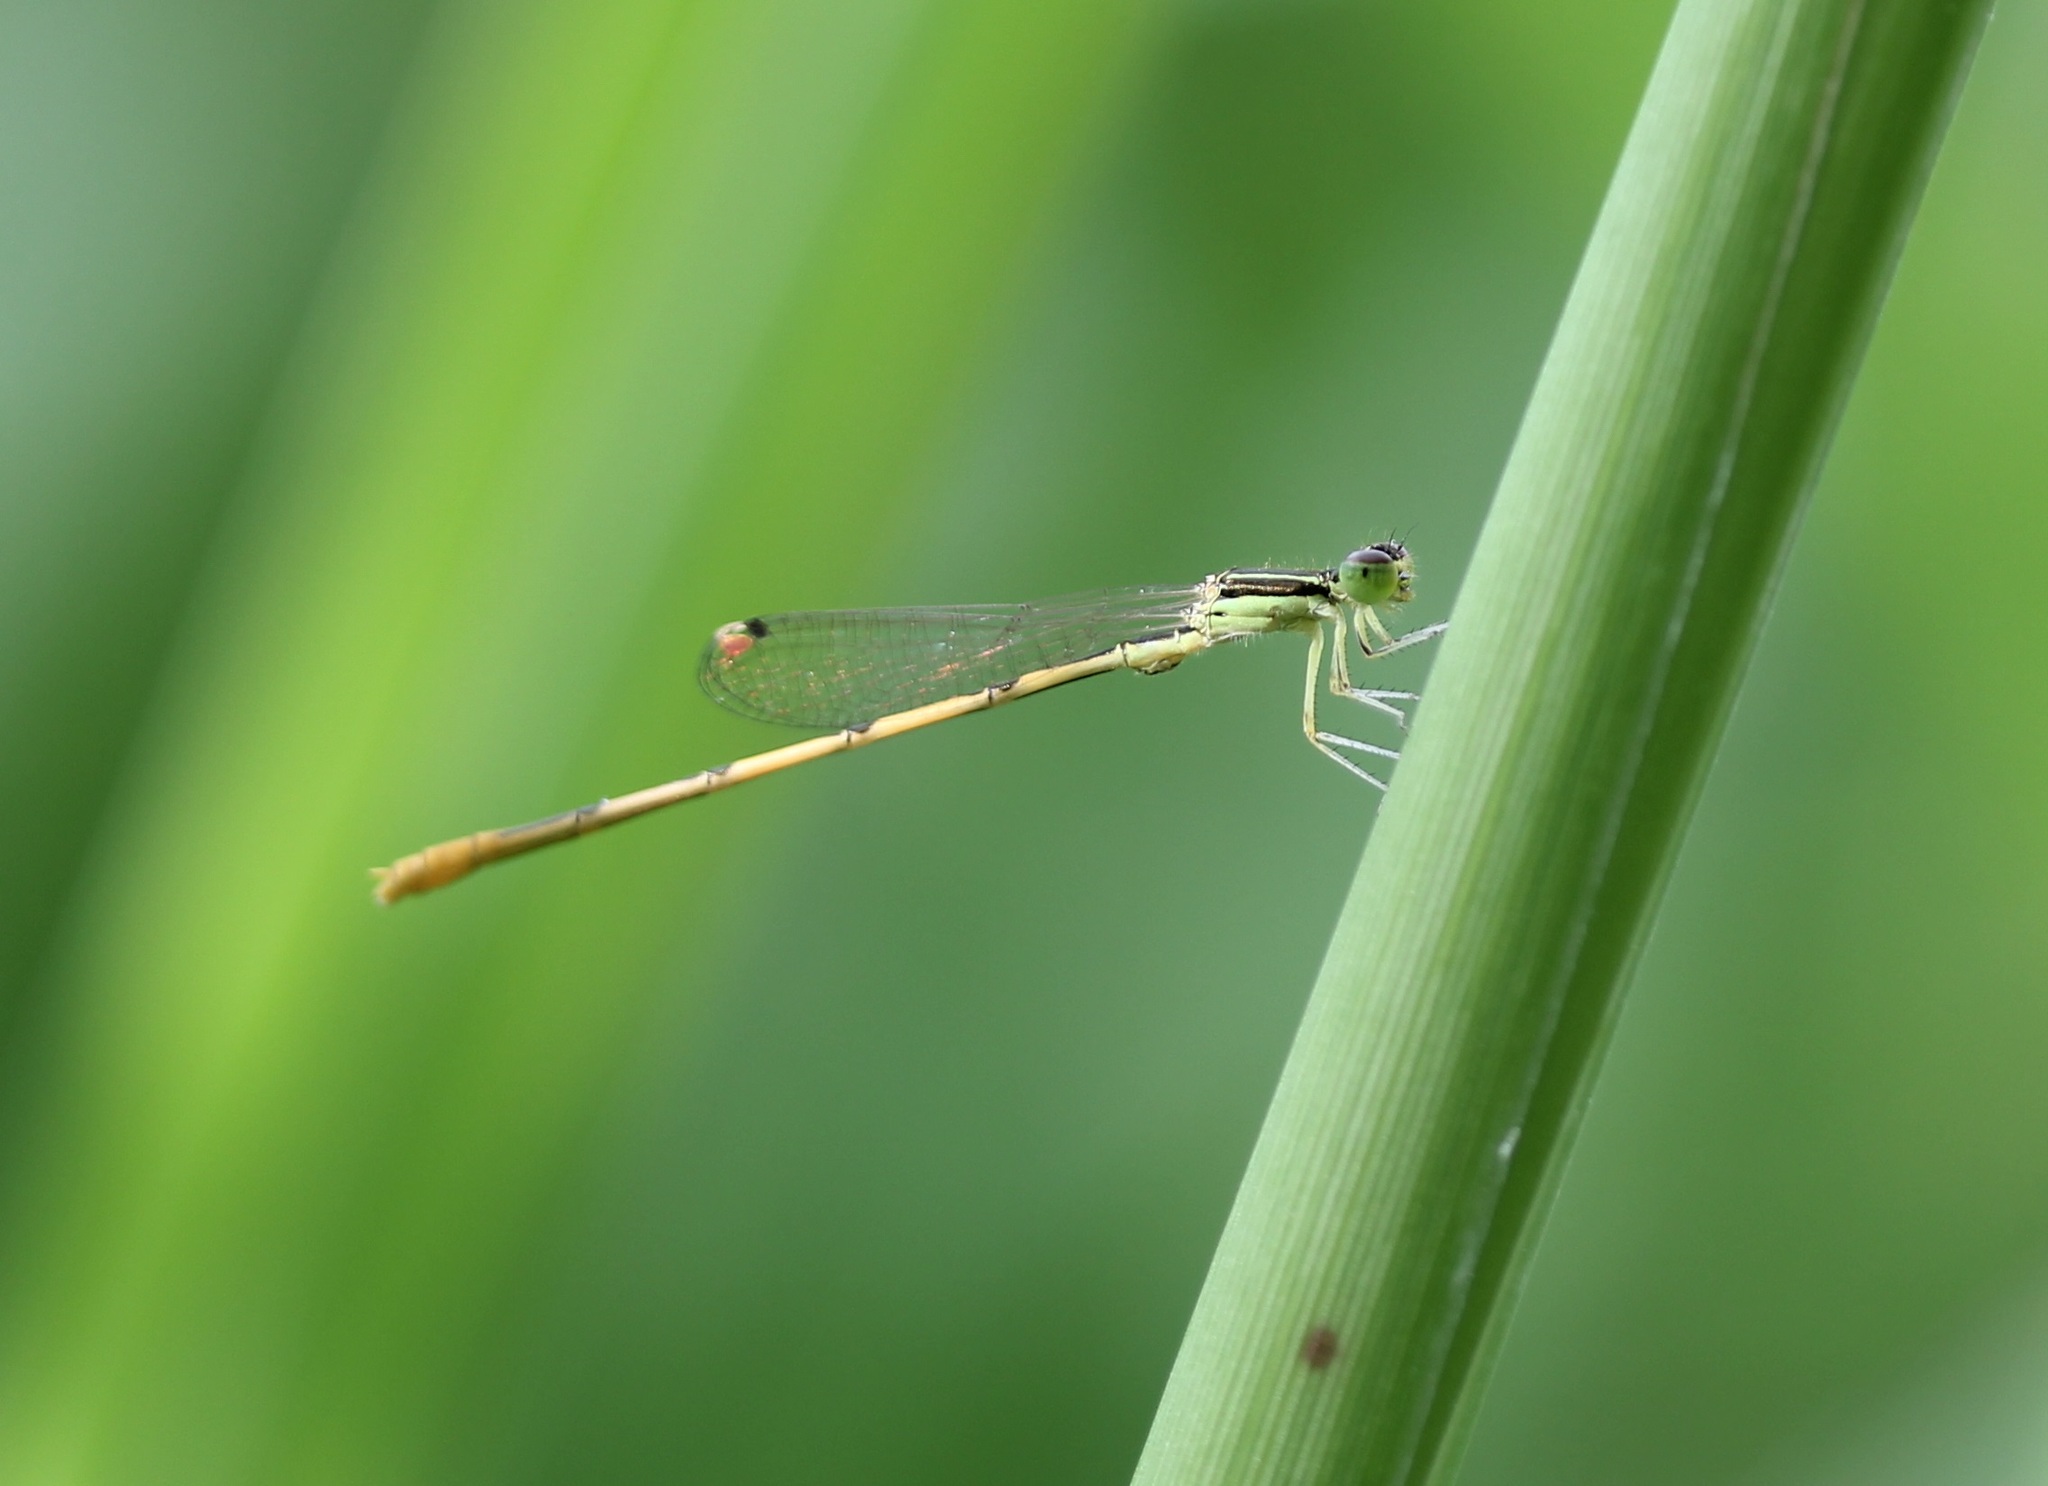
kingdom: Animalia
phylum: Arthropoda
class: Insecta
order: Odonata
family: Coenagrionidae
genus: Ischnura
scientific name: Ischnura hastata
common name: Citrine forktail
